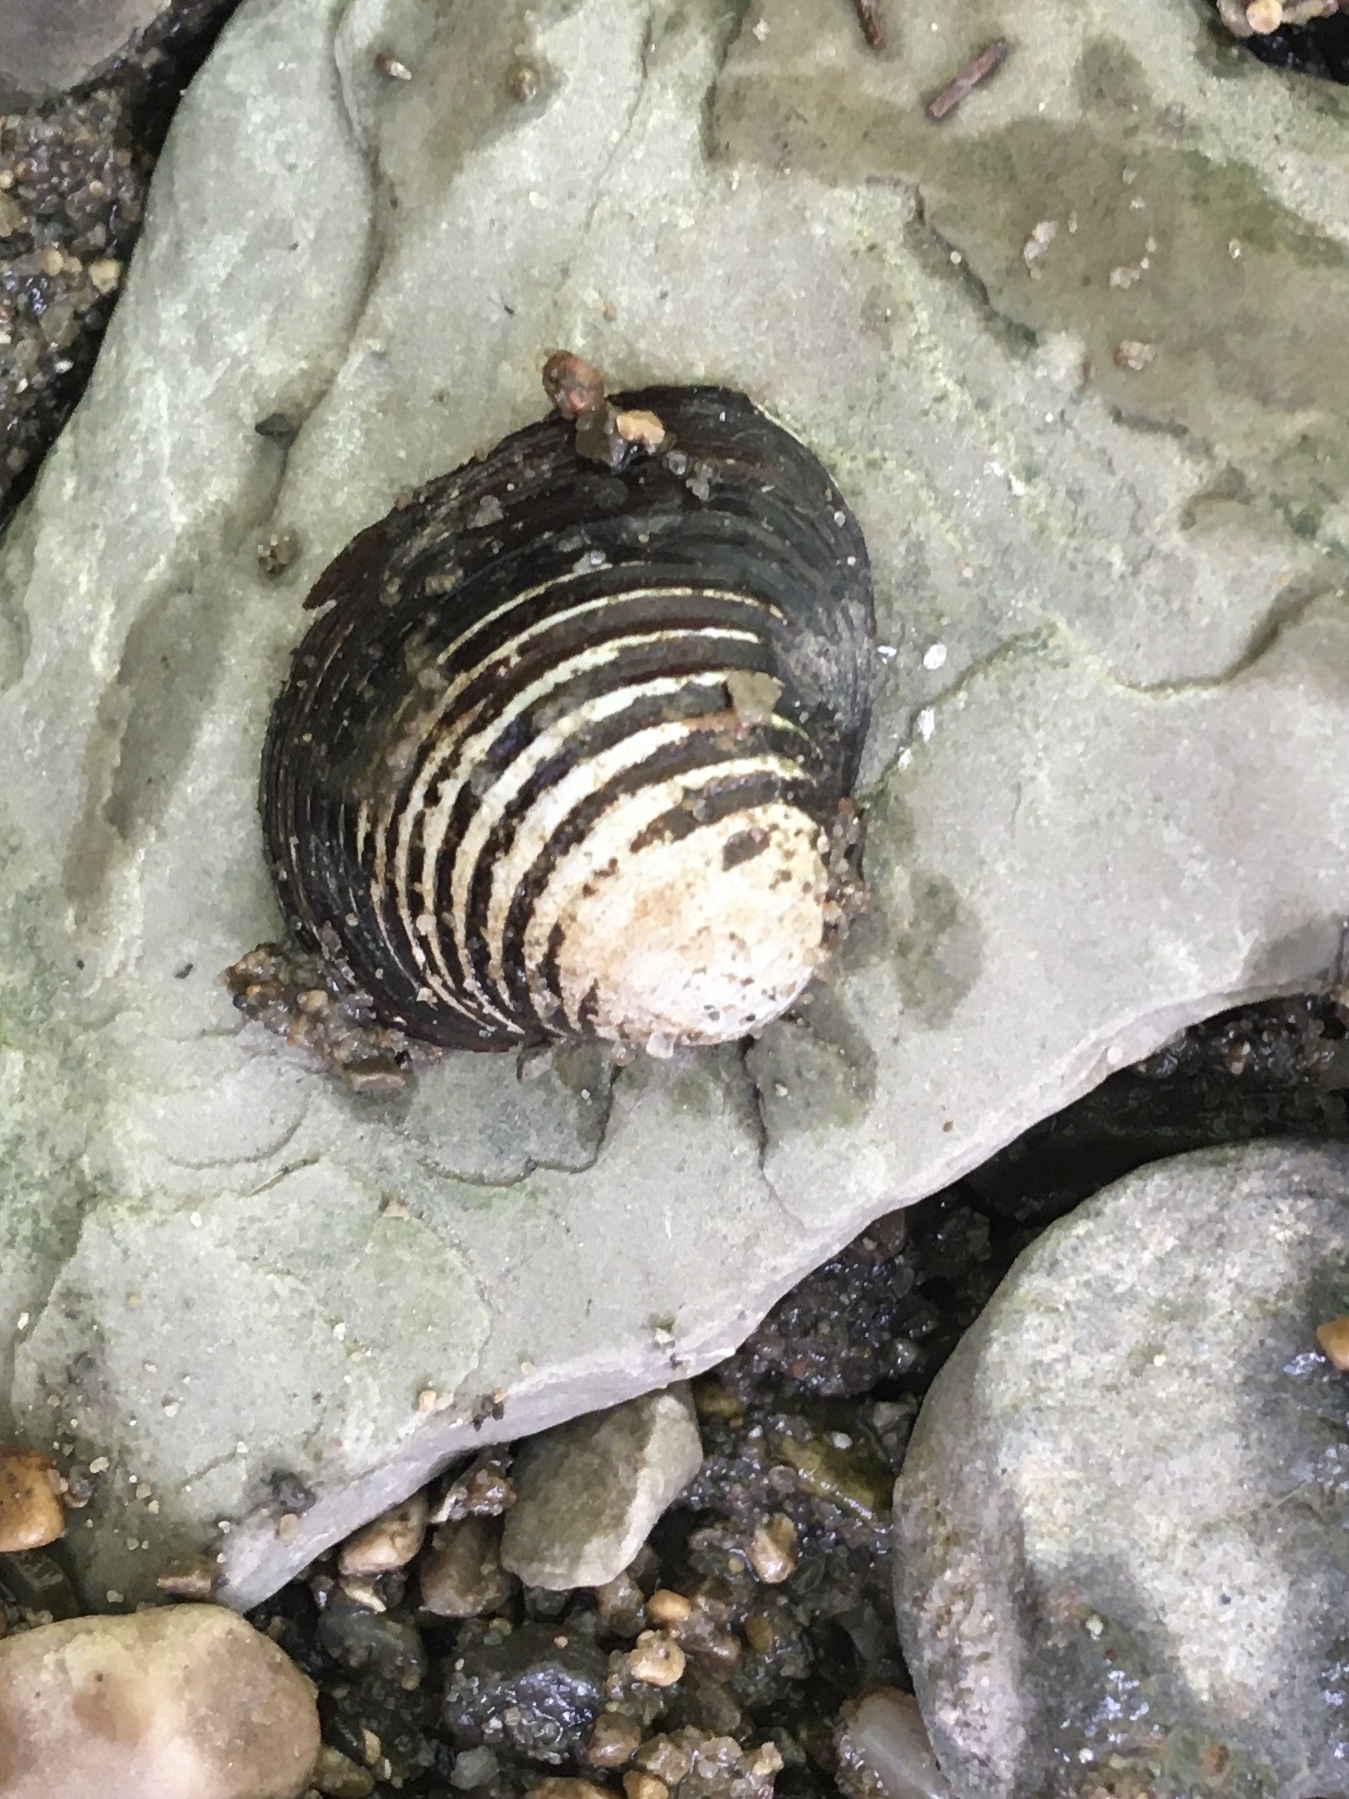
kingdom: Animalia
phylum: Mollusca
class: Bivalvia
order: Venerida
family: Cyrenidae
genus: Corbicula
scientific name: Corbicula fluminea
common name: Asian clam
